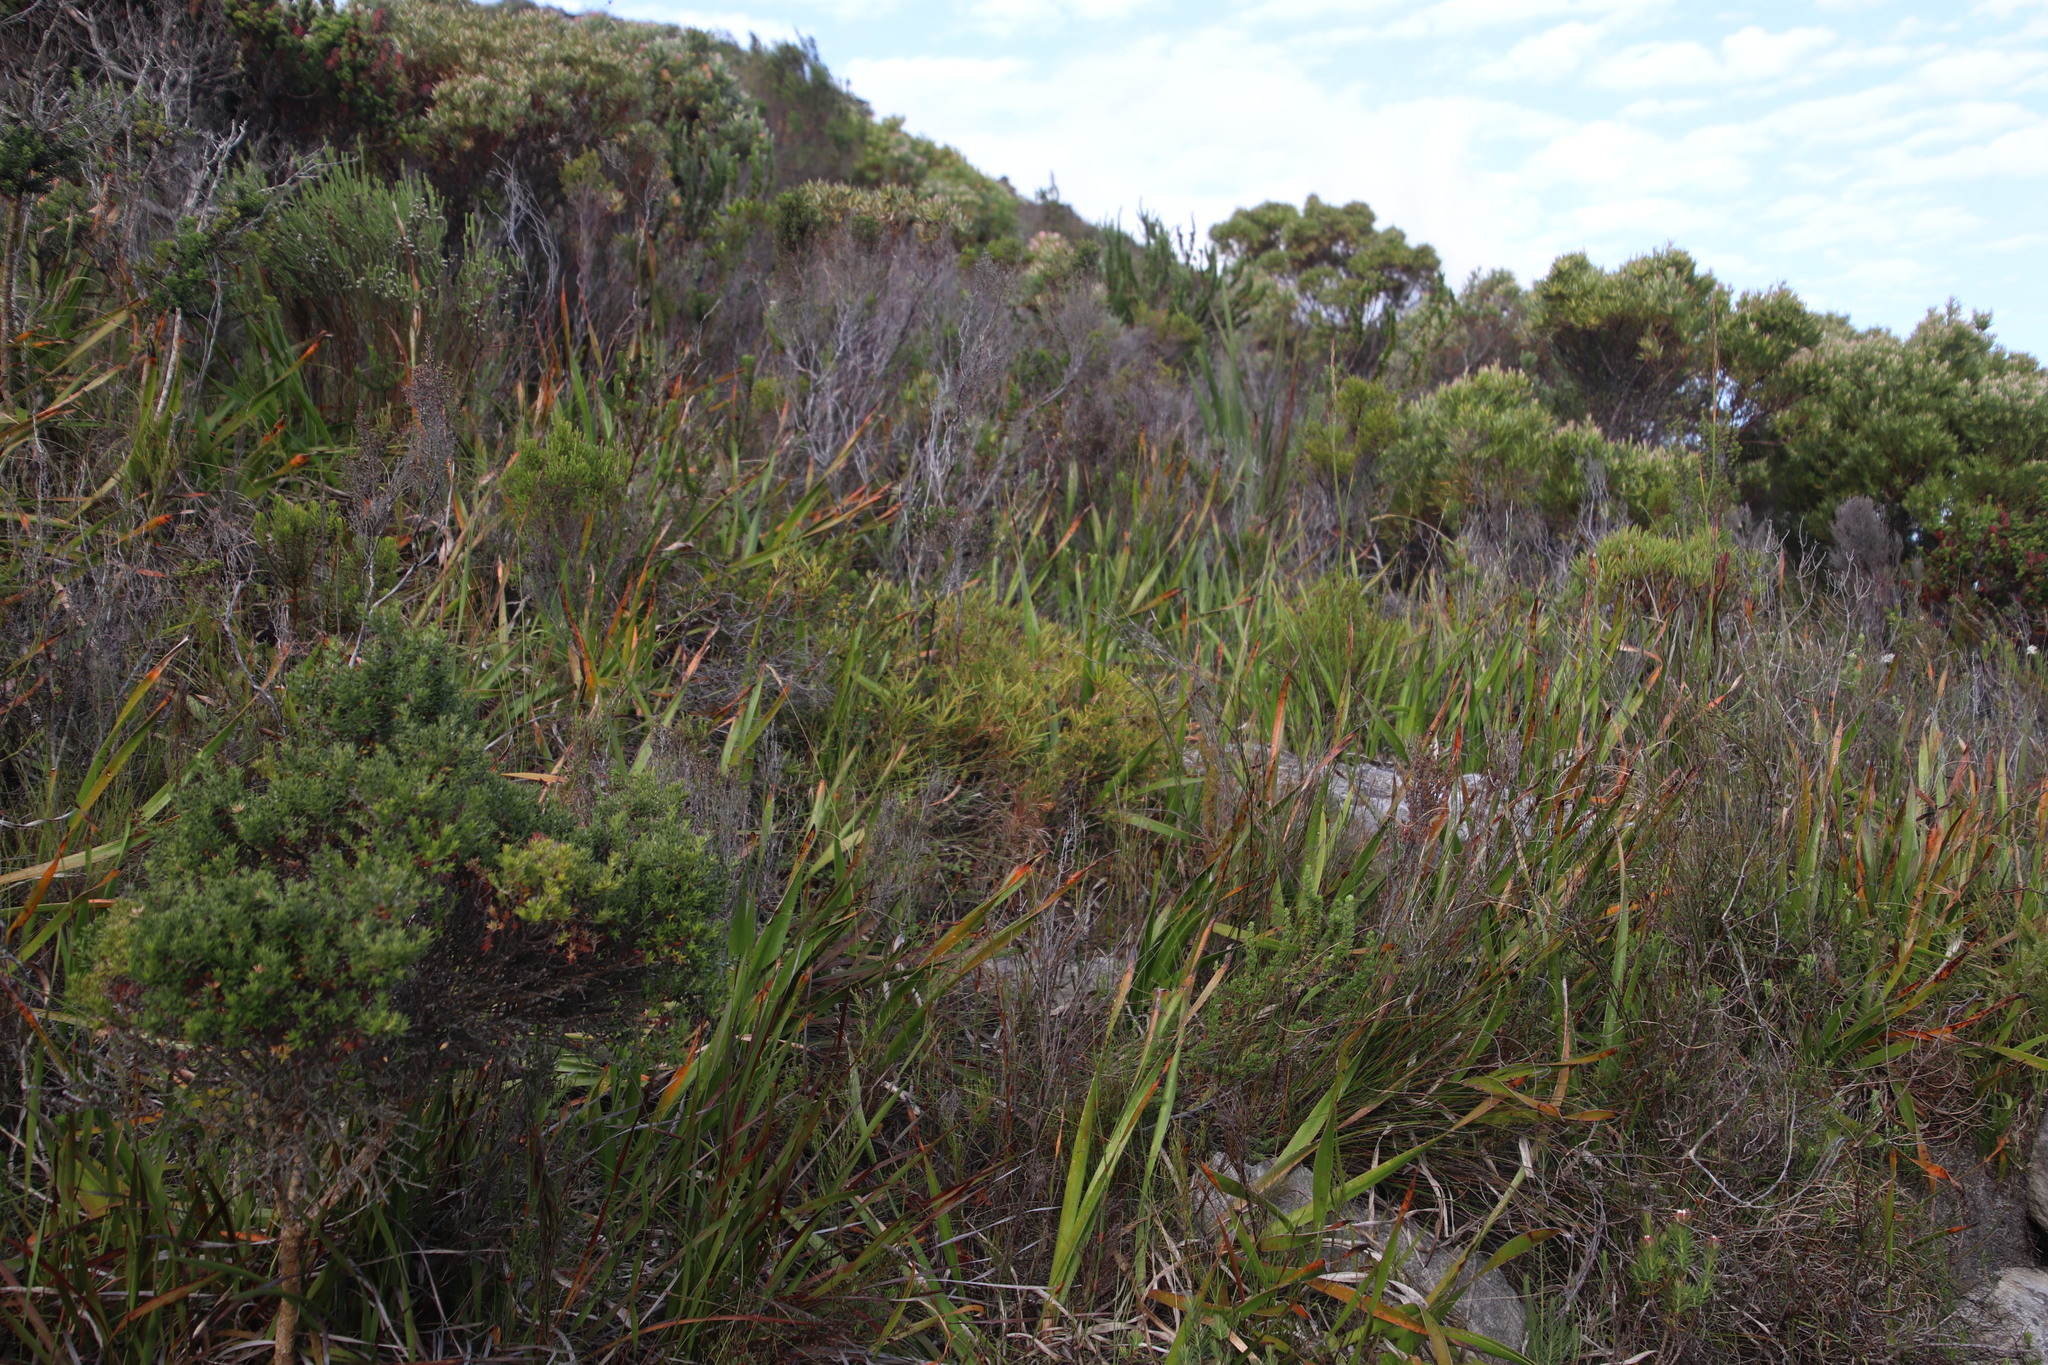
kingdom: Plantae
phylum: Tracheophyta
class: Magnoliopsida
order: Proteales
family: Proteaceae
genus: Leucadendron
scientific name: Leucadendron salignum
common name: Common sunshine conebush
